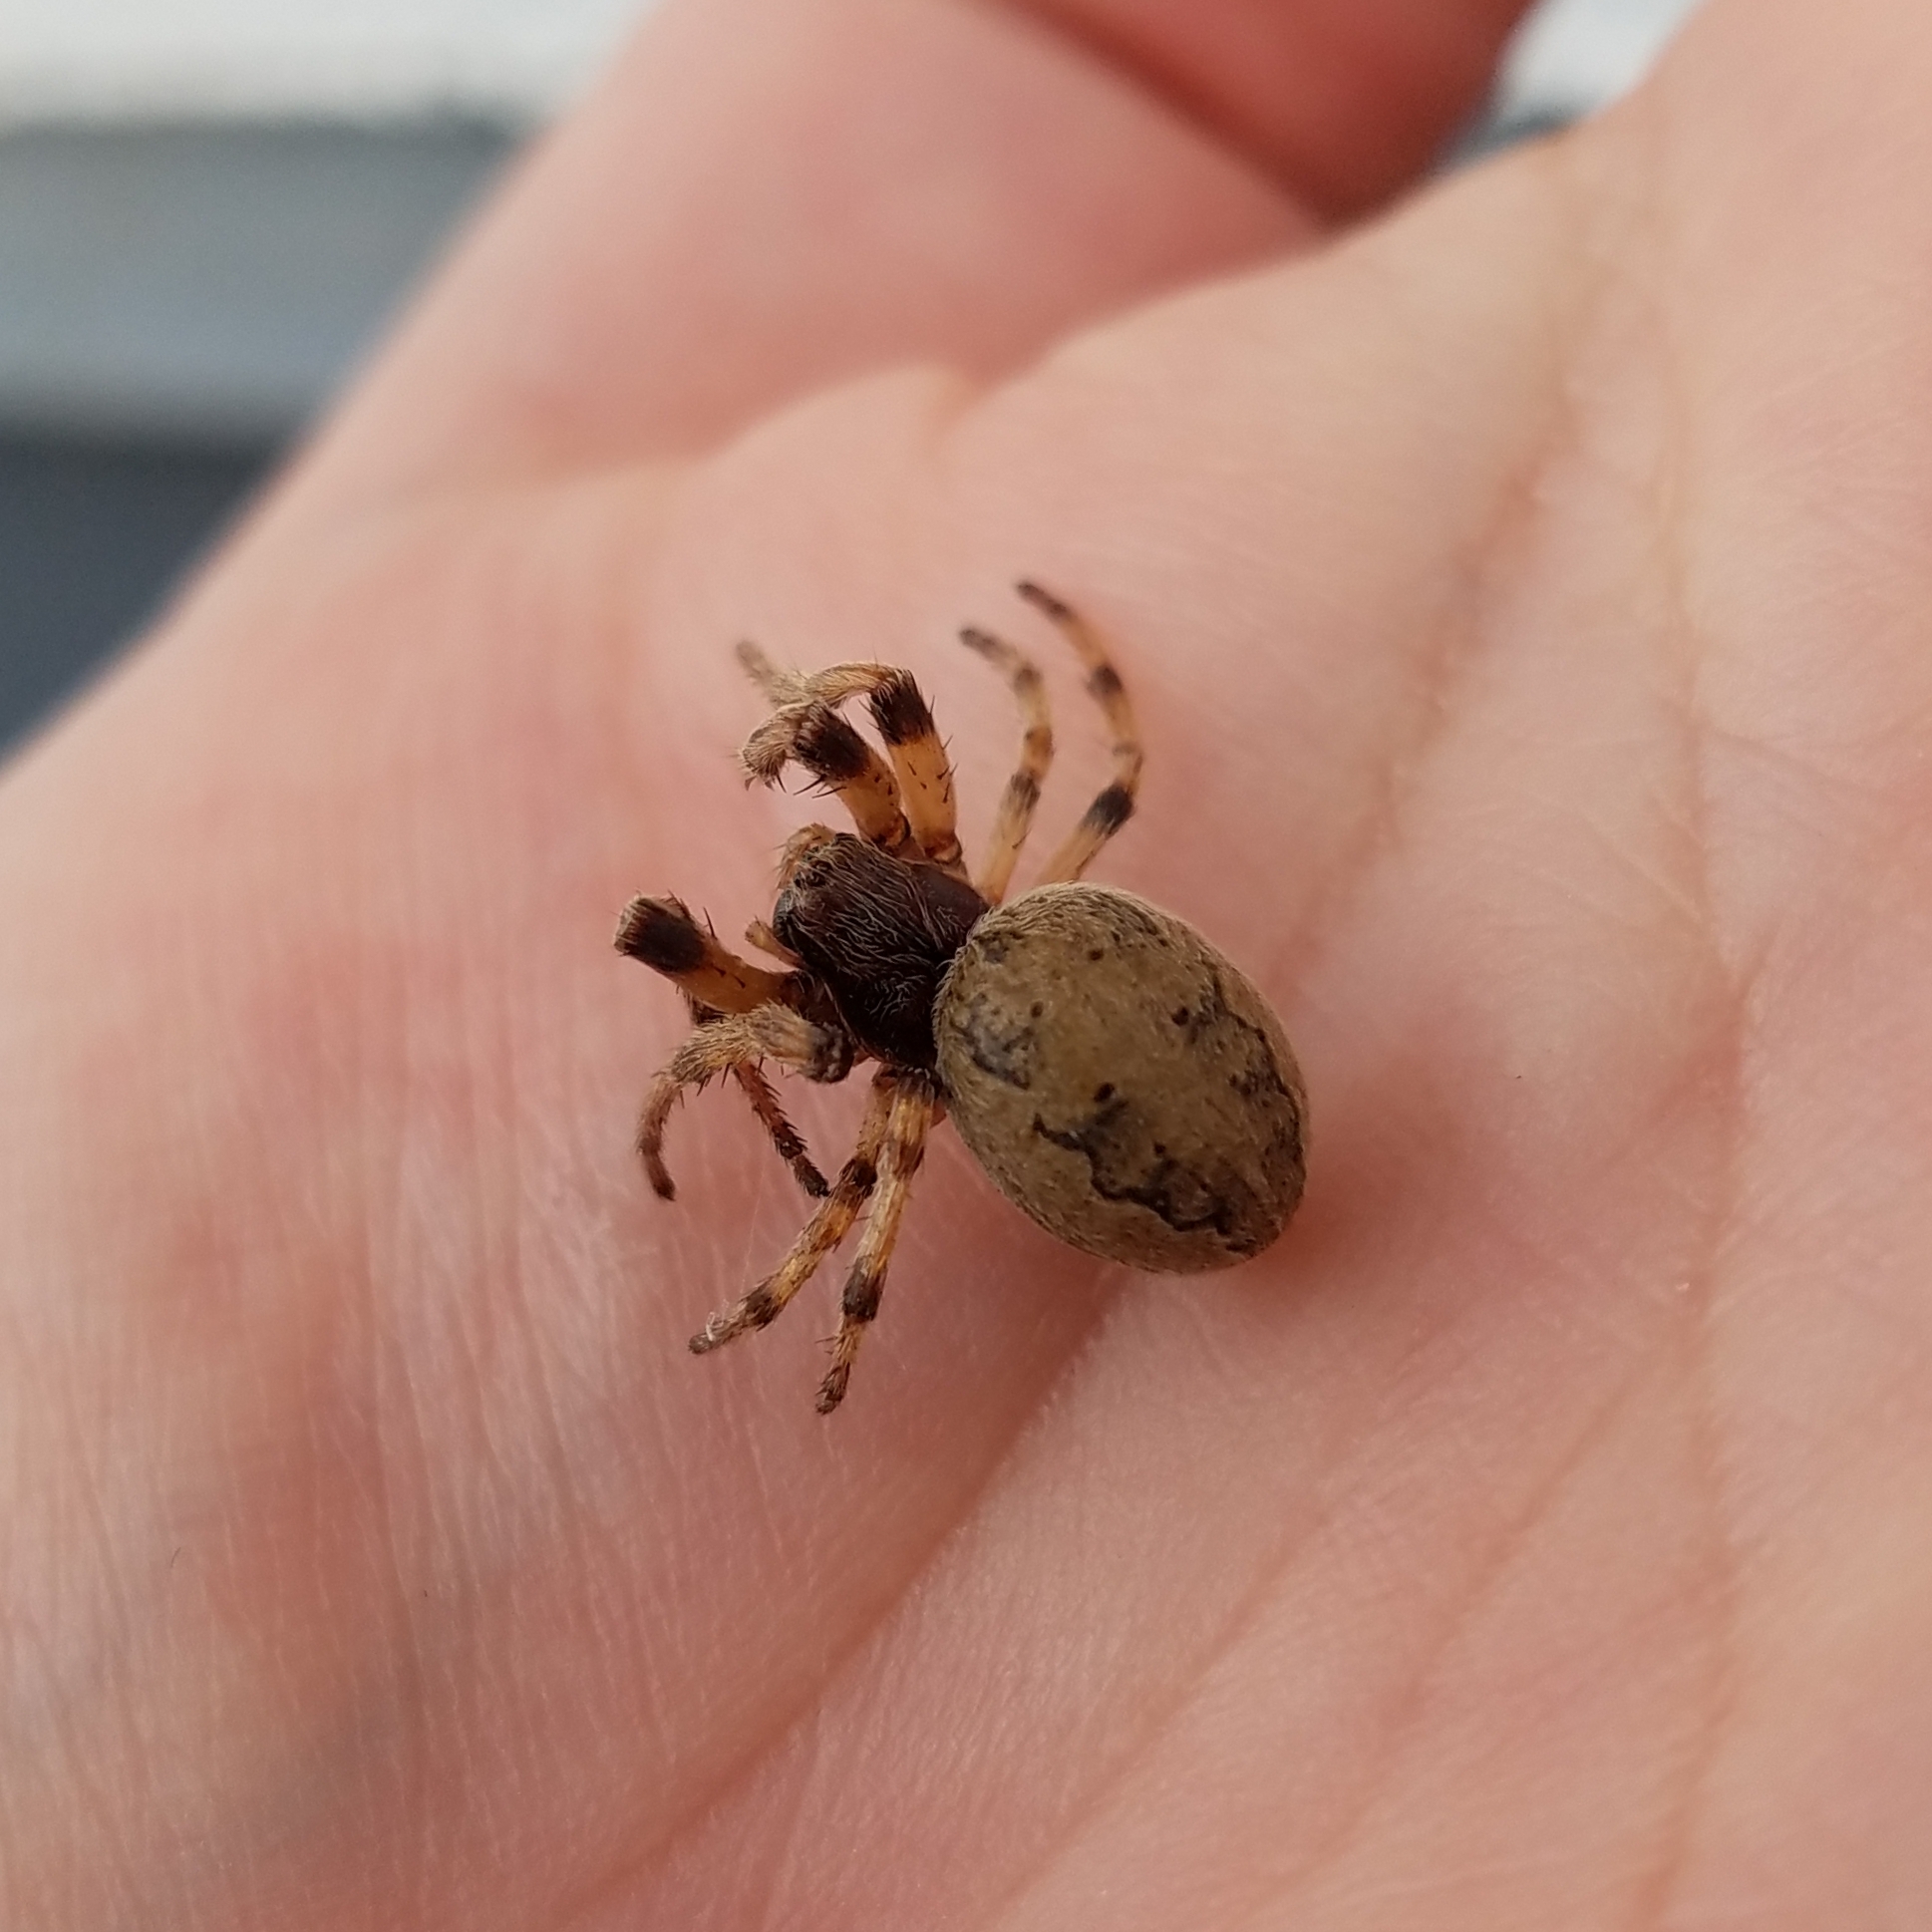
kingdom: Animalia
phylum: Arthropoda
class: Arachnida
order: Araneae
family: Araneidae
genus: Larinioides
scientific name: Larinioides cornutus
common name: Furrow orbweaver
